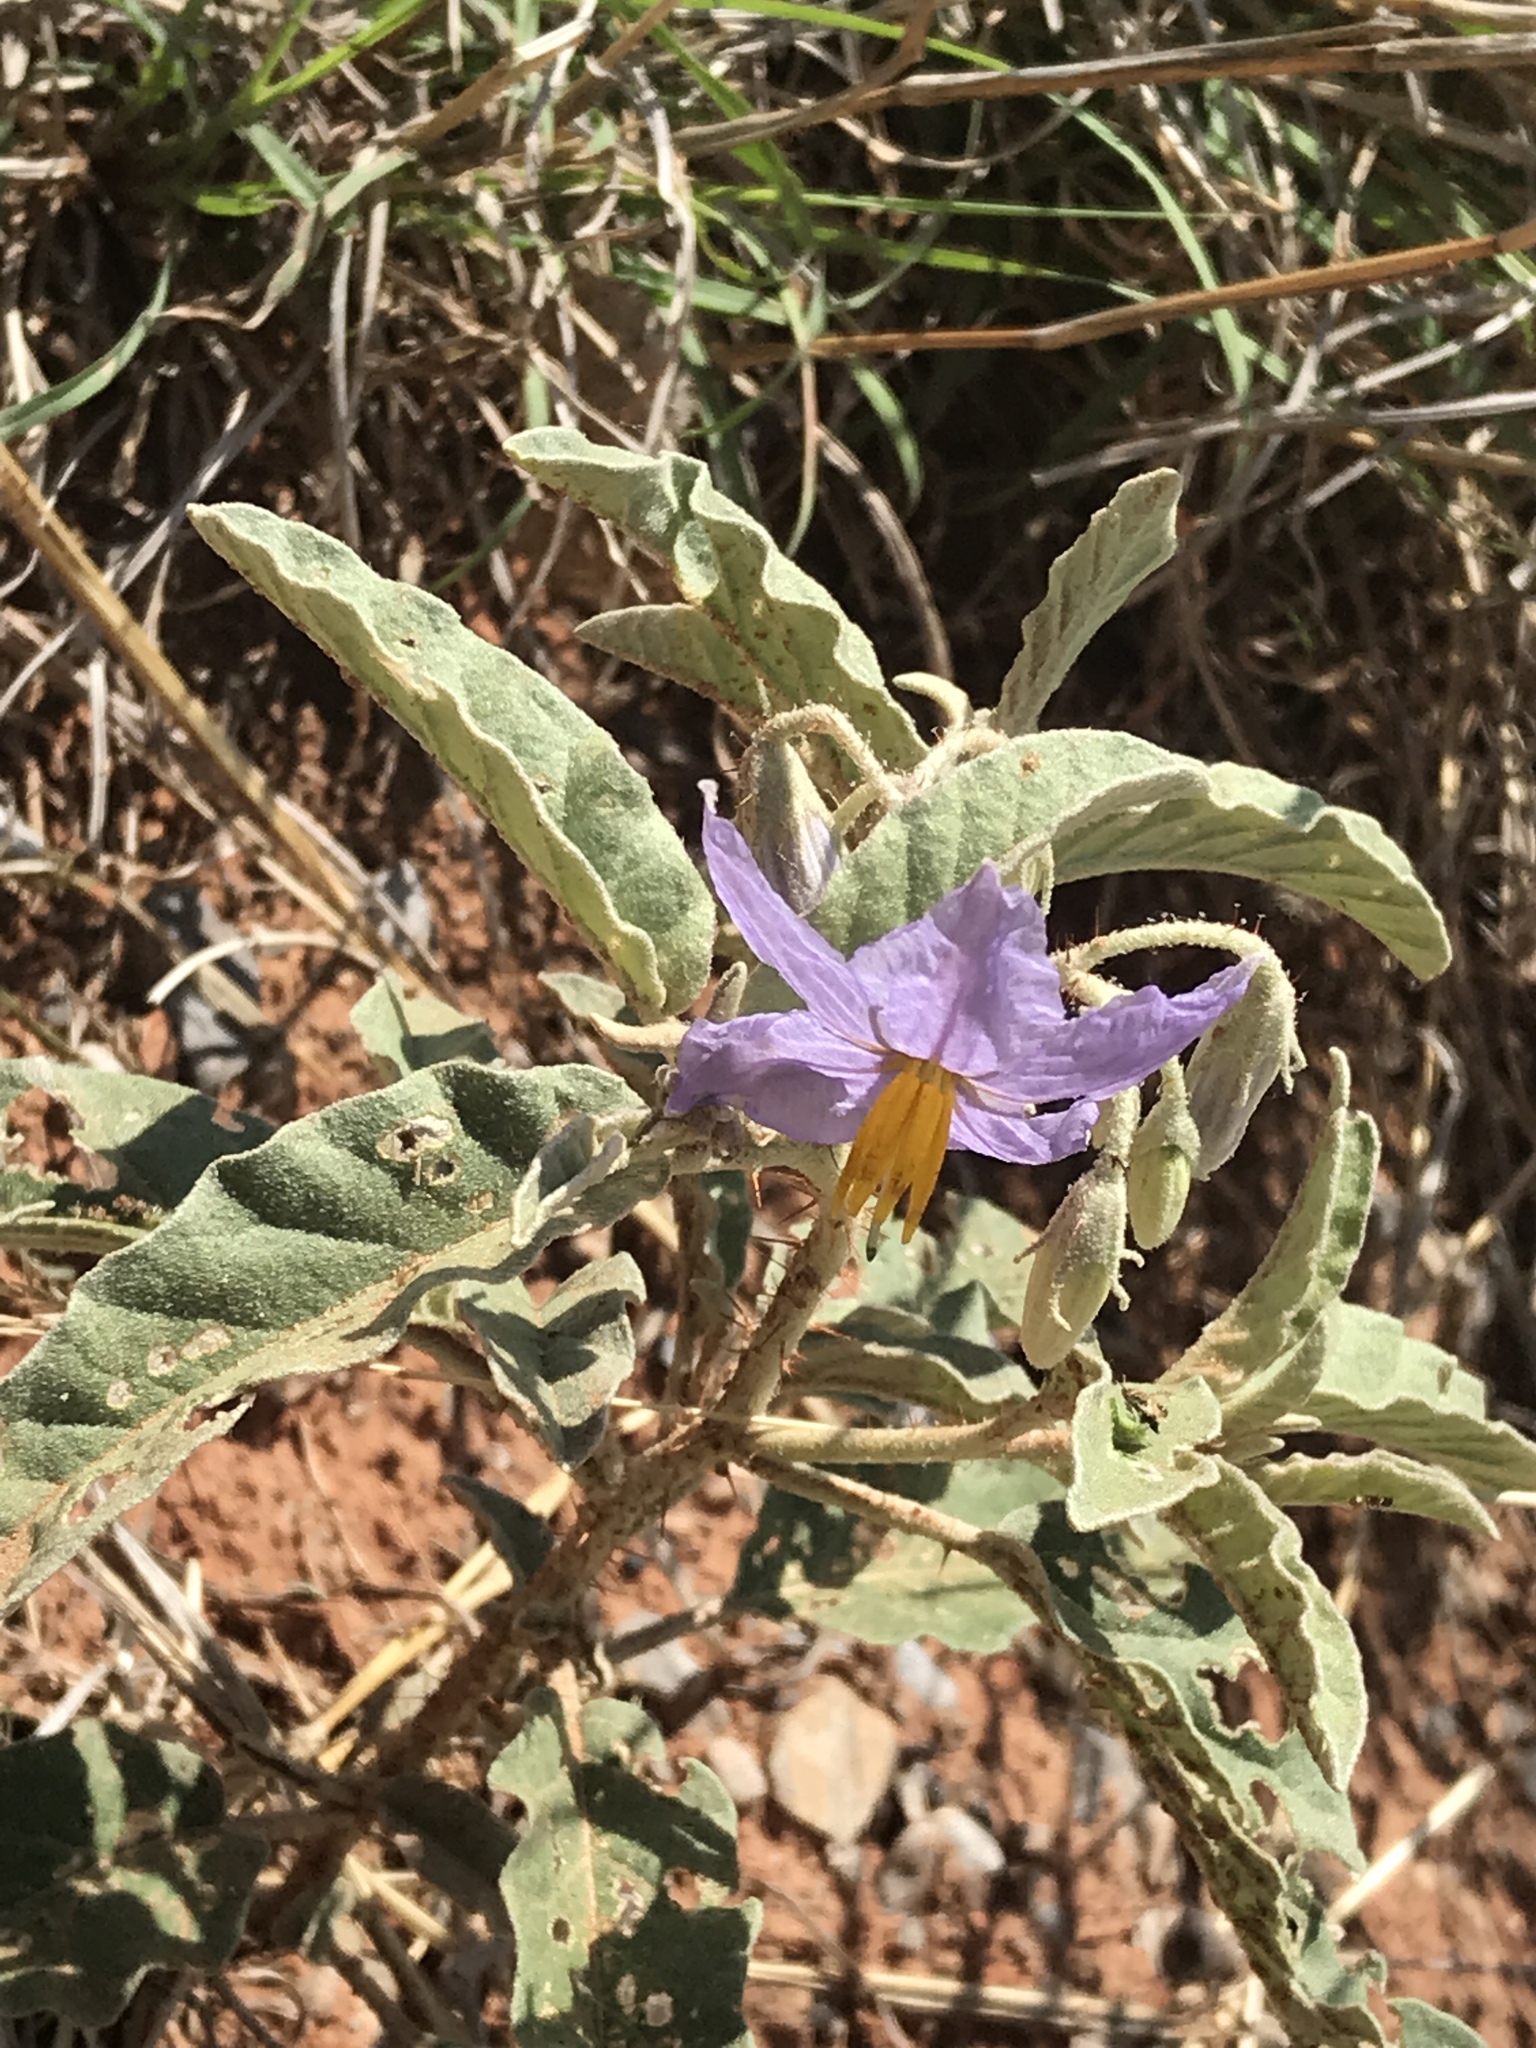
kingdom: Plantae
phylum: Tracheophyta
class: Magnoliopsida
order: Solanales
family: Solanaceae
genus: Solanum
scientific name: Solanum elaeagnifolium
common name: Silverleaf nightshade
